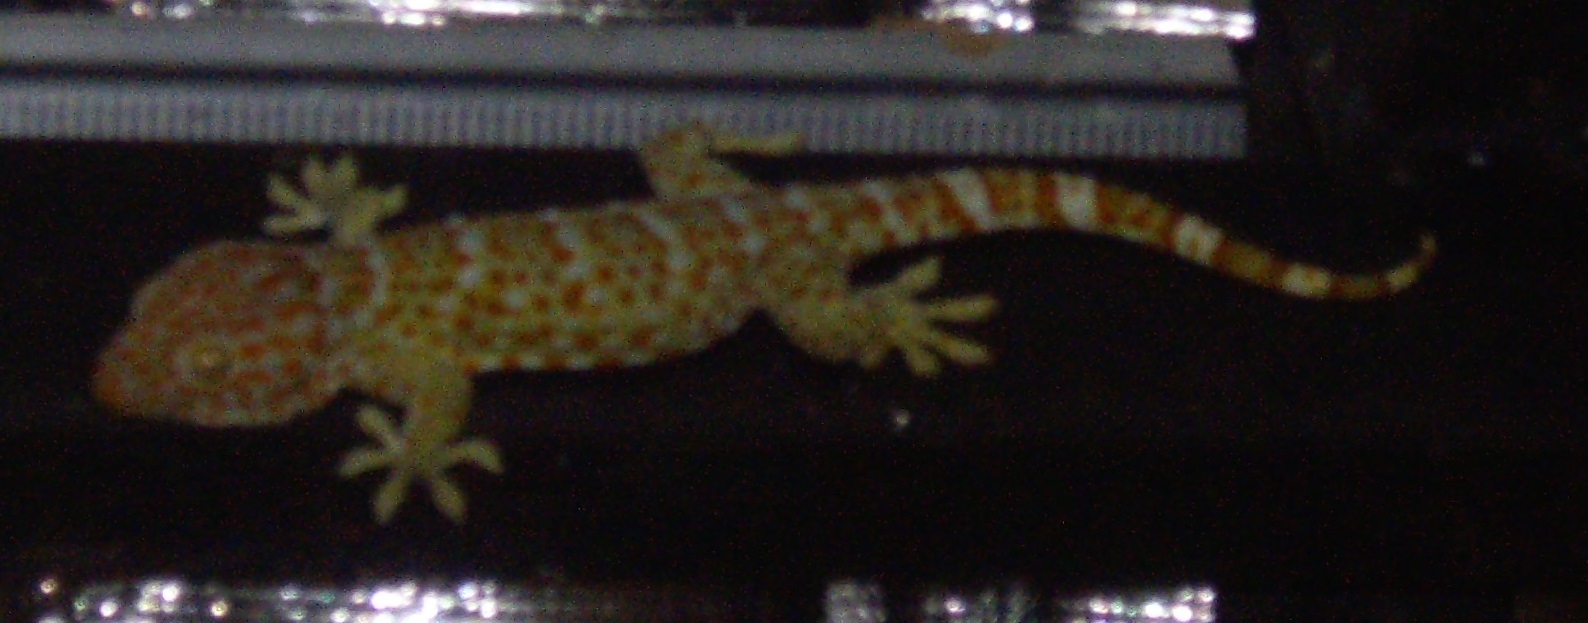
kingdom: Animalia
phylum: Chordata
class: Squamata
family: Gekkonidae
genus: Gekko
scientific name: Gekko gecko
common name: Tokay gecko
